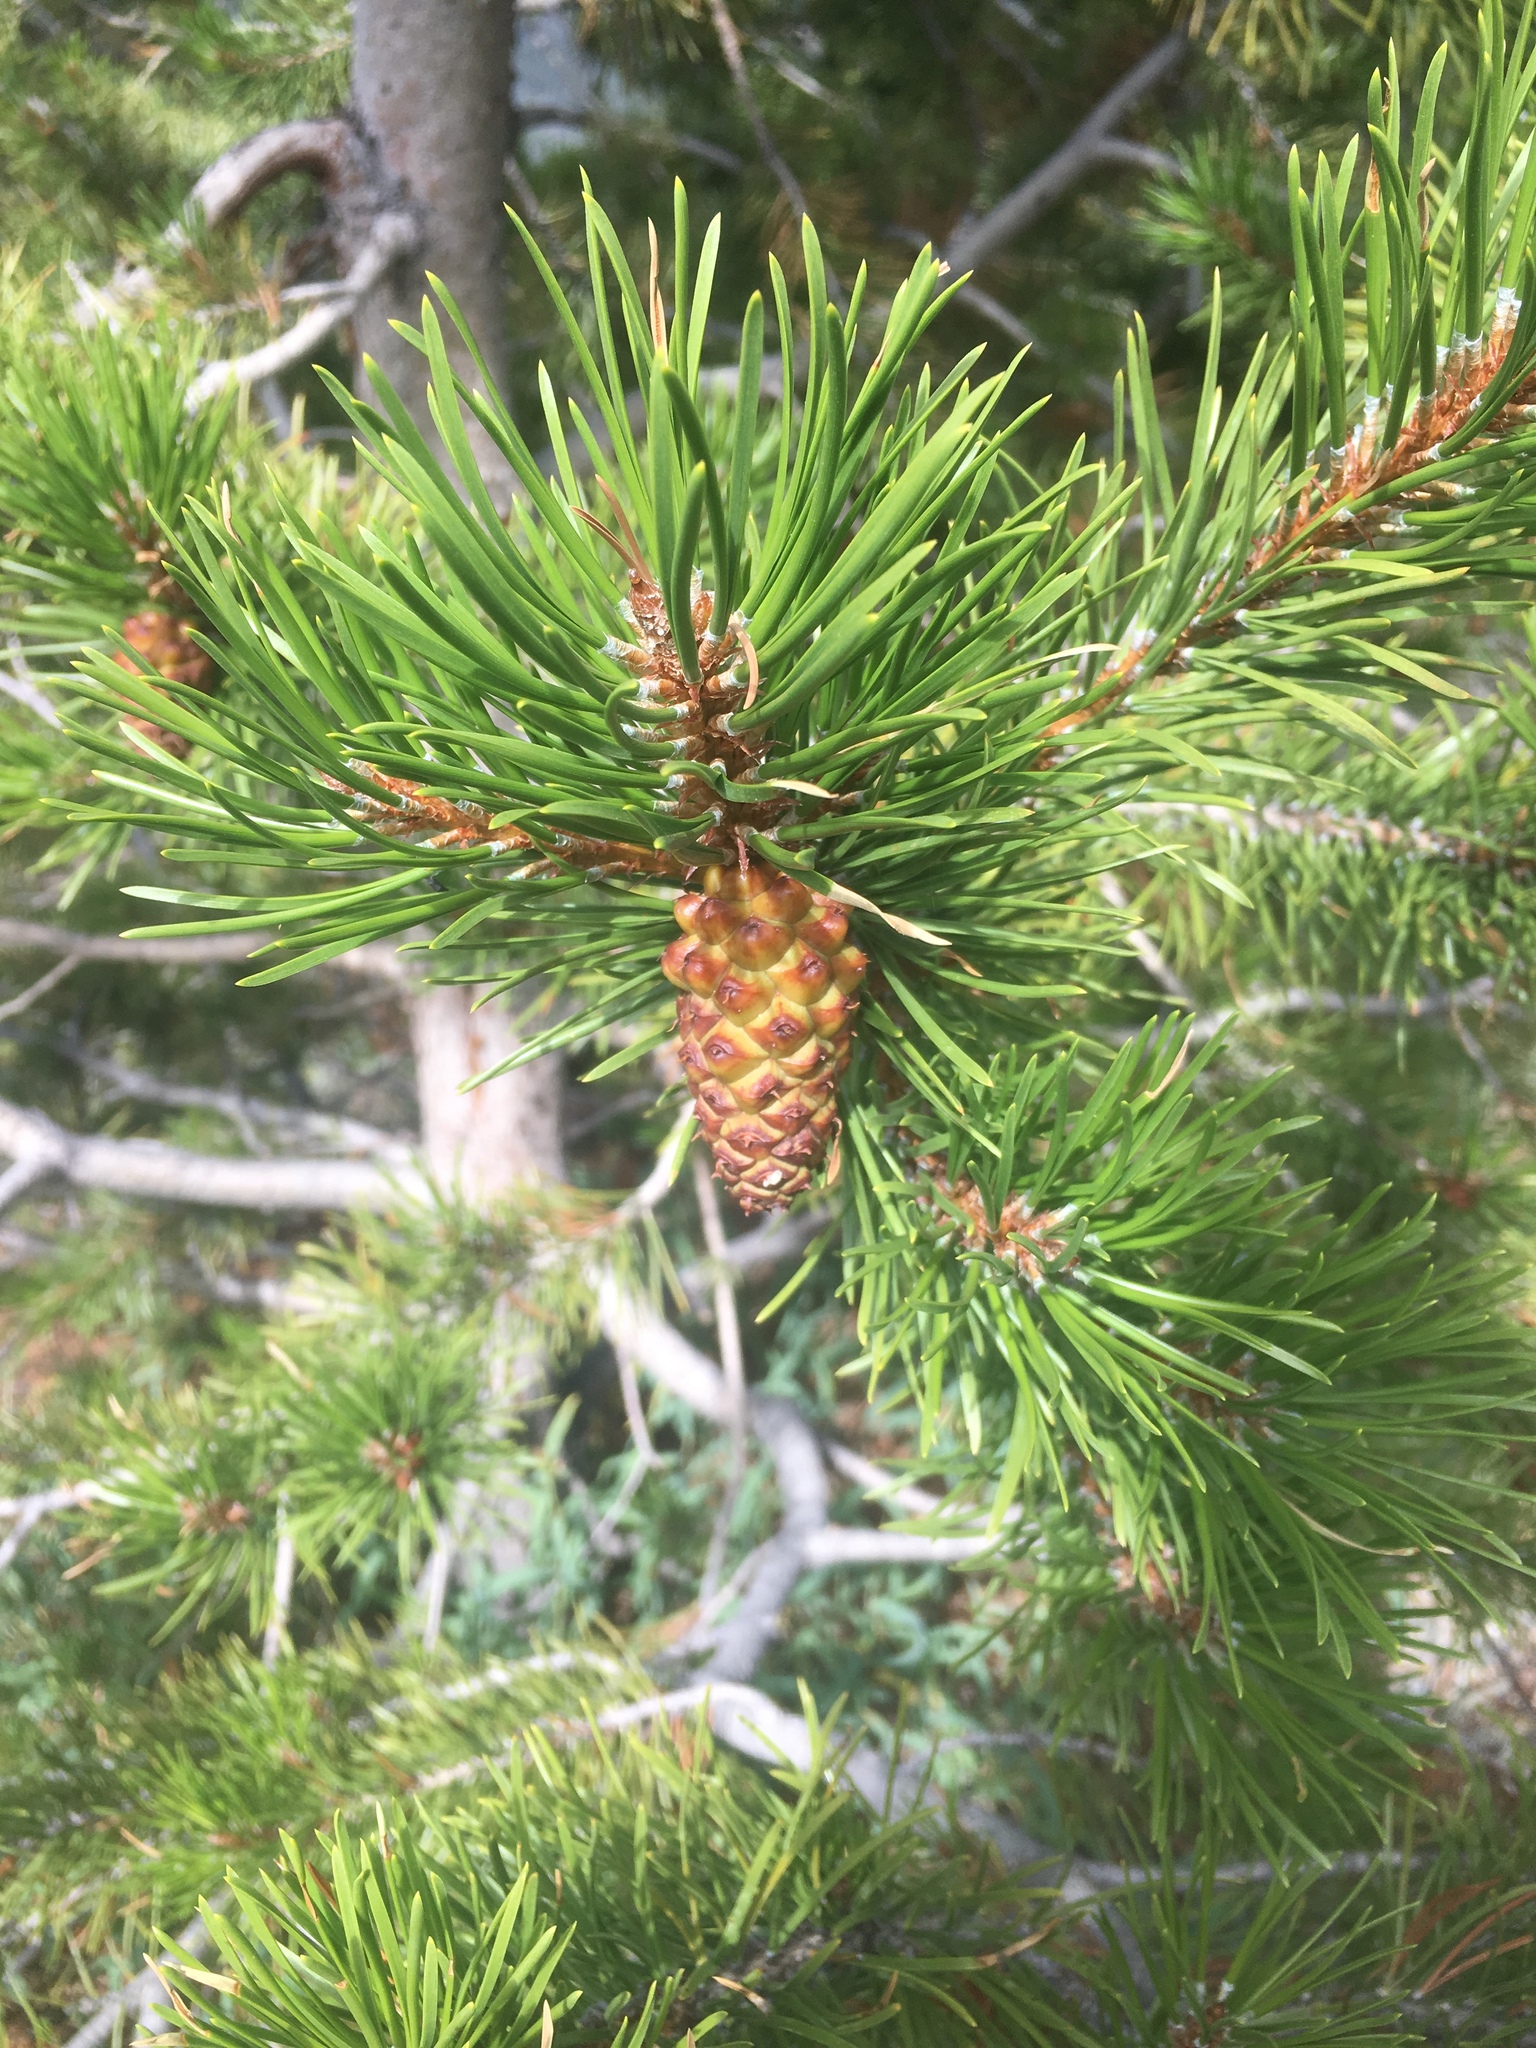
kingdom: Plantae
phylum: Tracheophyta
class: Pinopsida
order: Pinales
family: Pinaceae
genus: Pinus
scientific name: Pinus contorta
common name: Lodgepole pine
